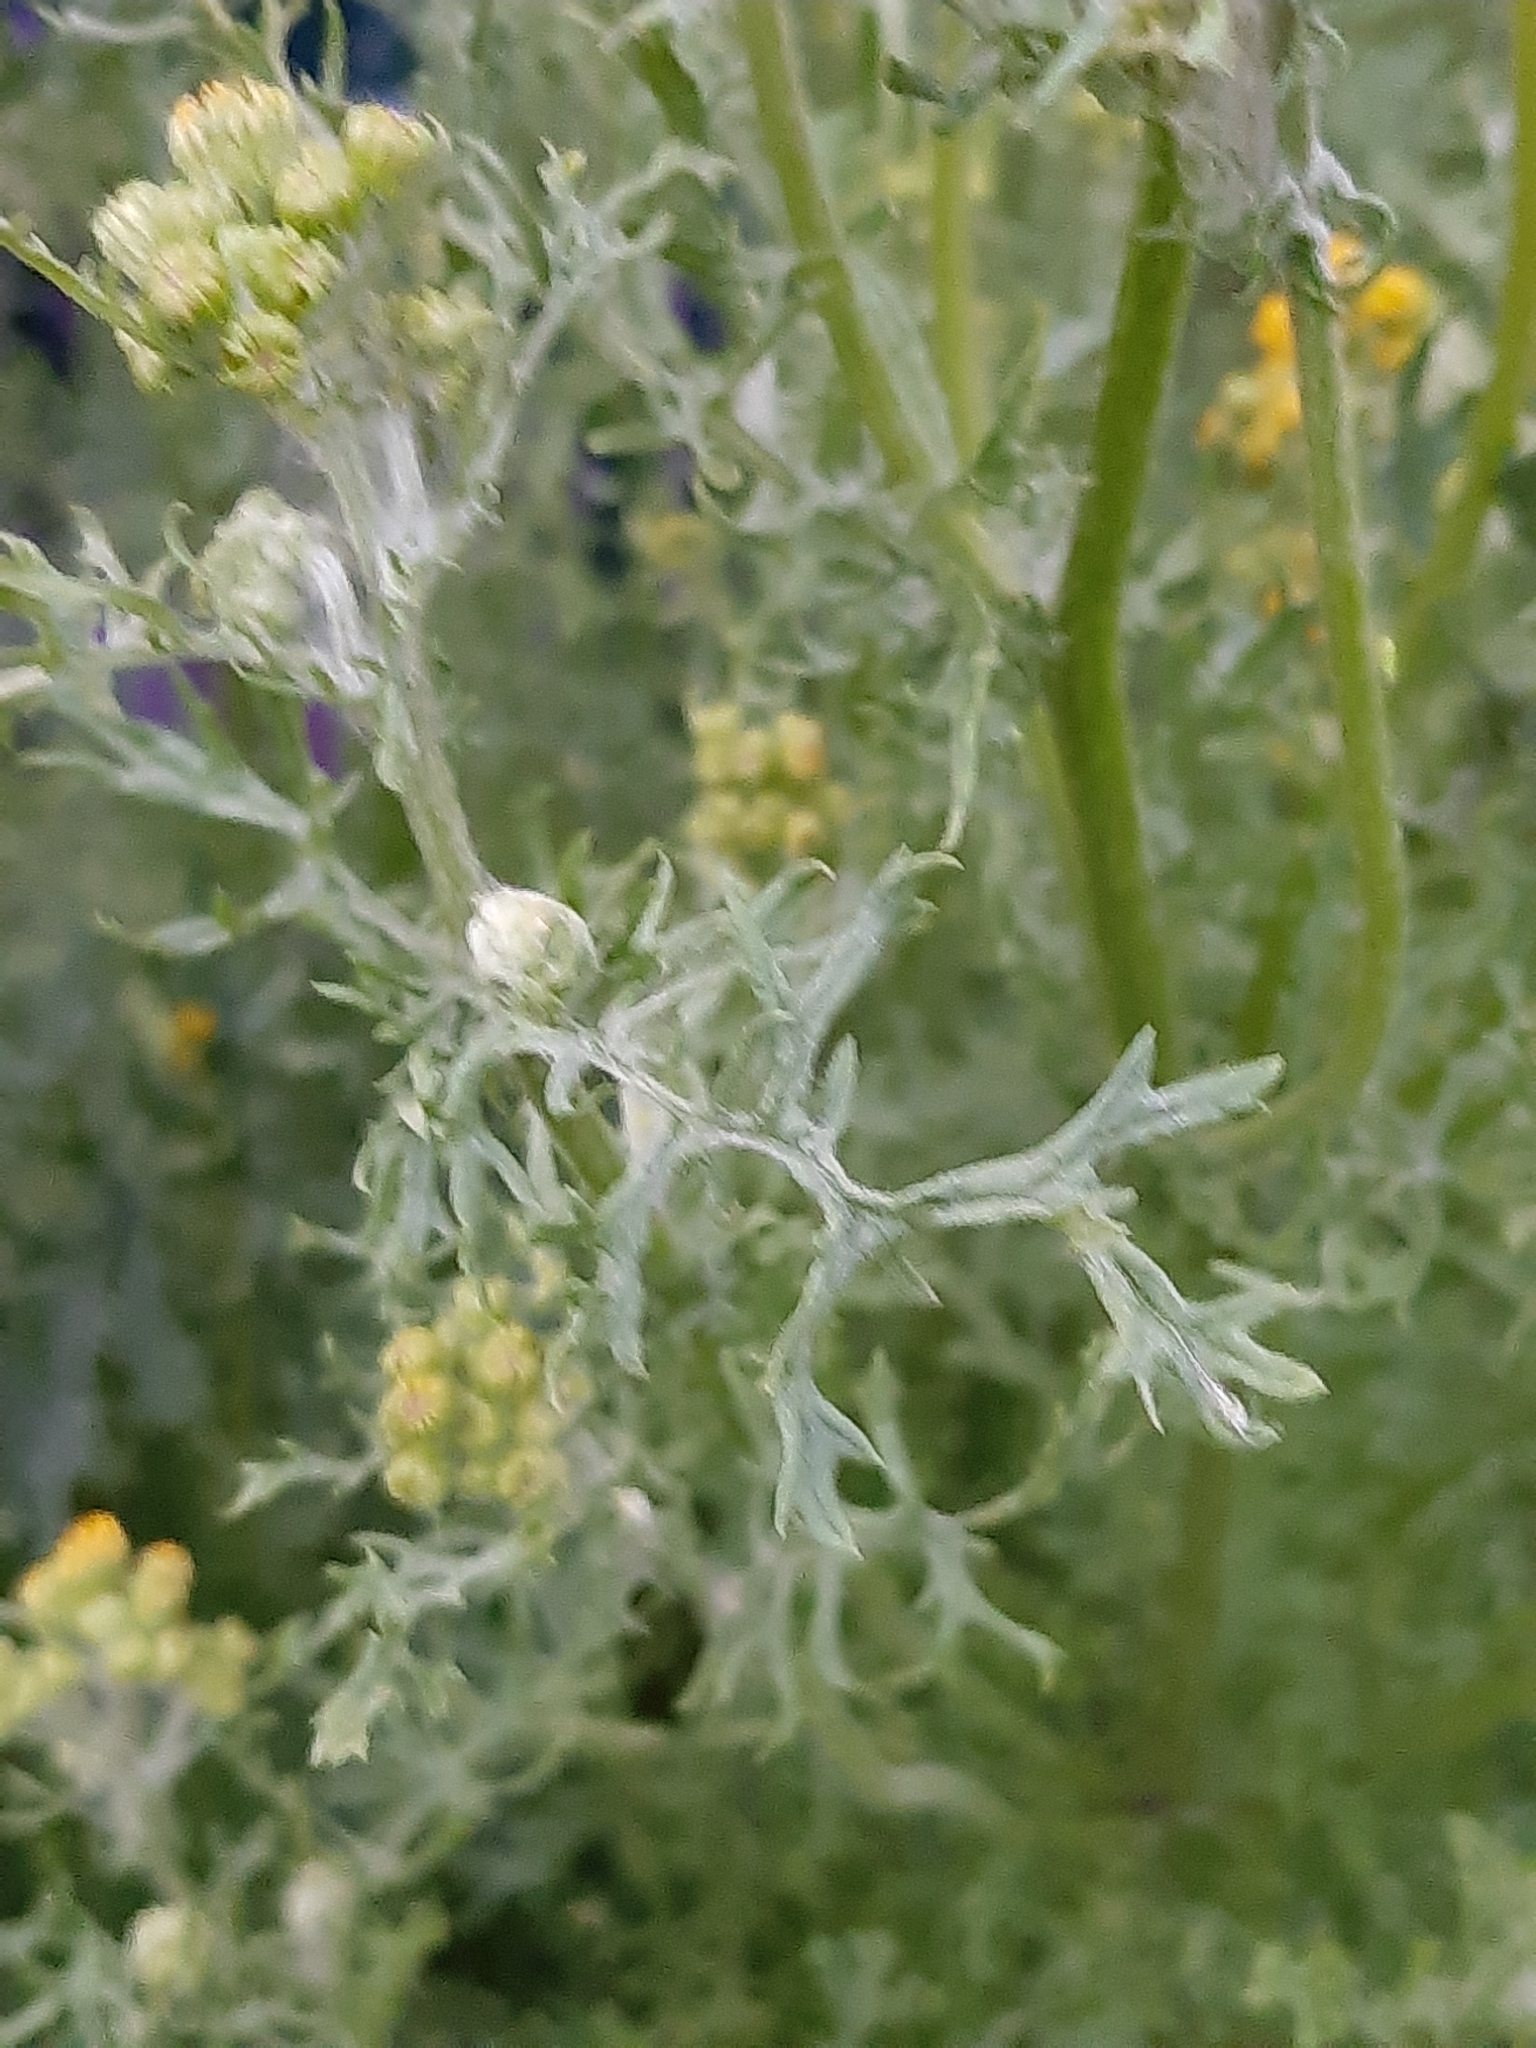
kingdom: Plantae
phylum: Tracheophyta
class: Magnoliopsida
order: Asterales
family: Asteraceae
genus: Jacobaea
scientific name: Jacobaea vulgaris
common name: Stinking willie
